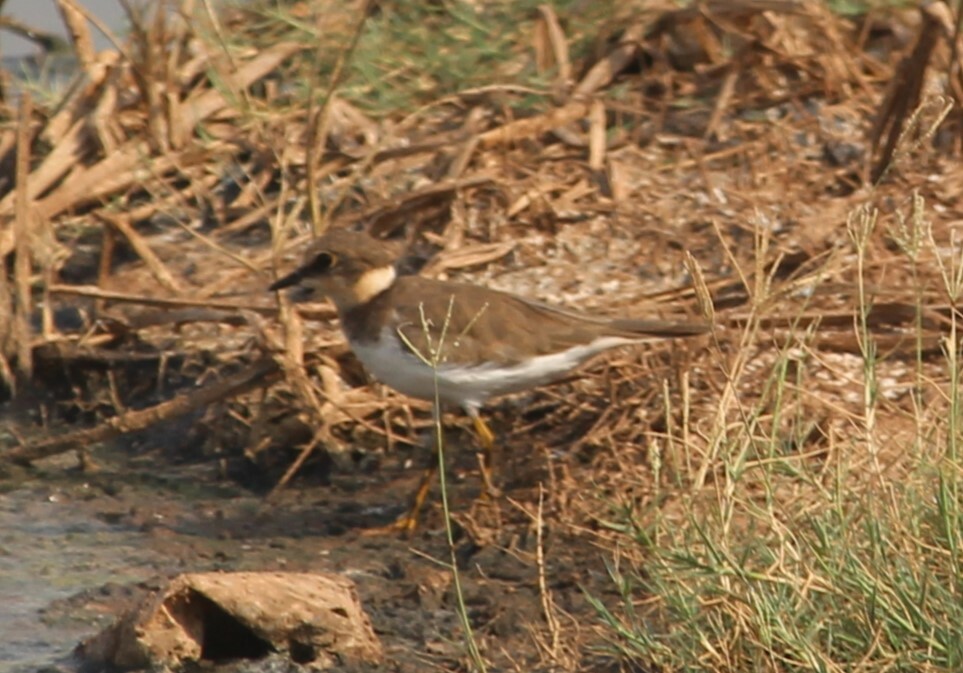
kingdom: Animalia
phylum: Chordata
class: Aves
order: Charadriiformes
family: Charadriidae
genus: Charadrius
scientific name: Charadrius dubius
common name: Little ringed plover
